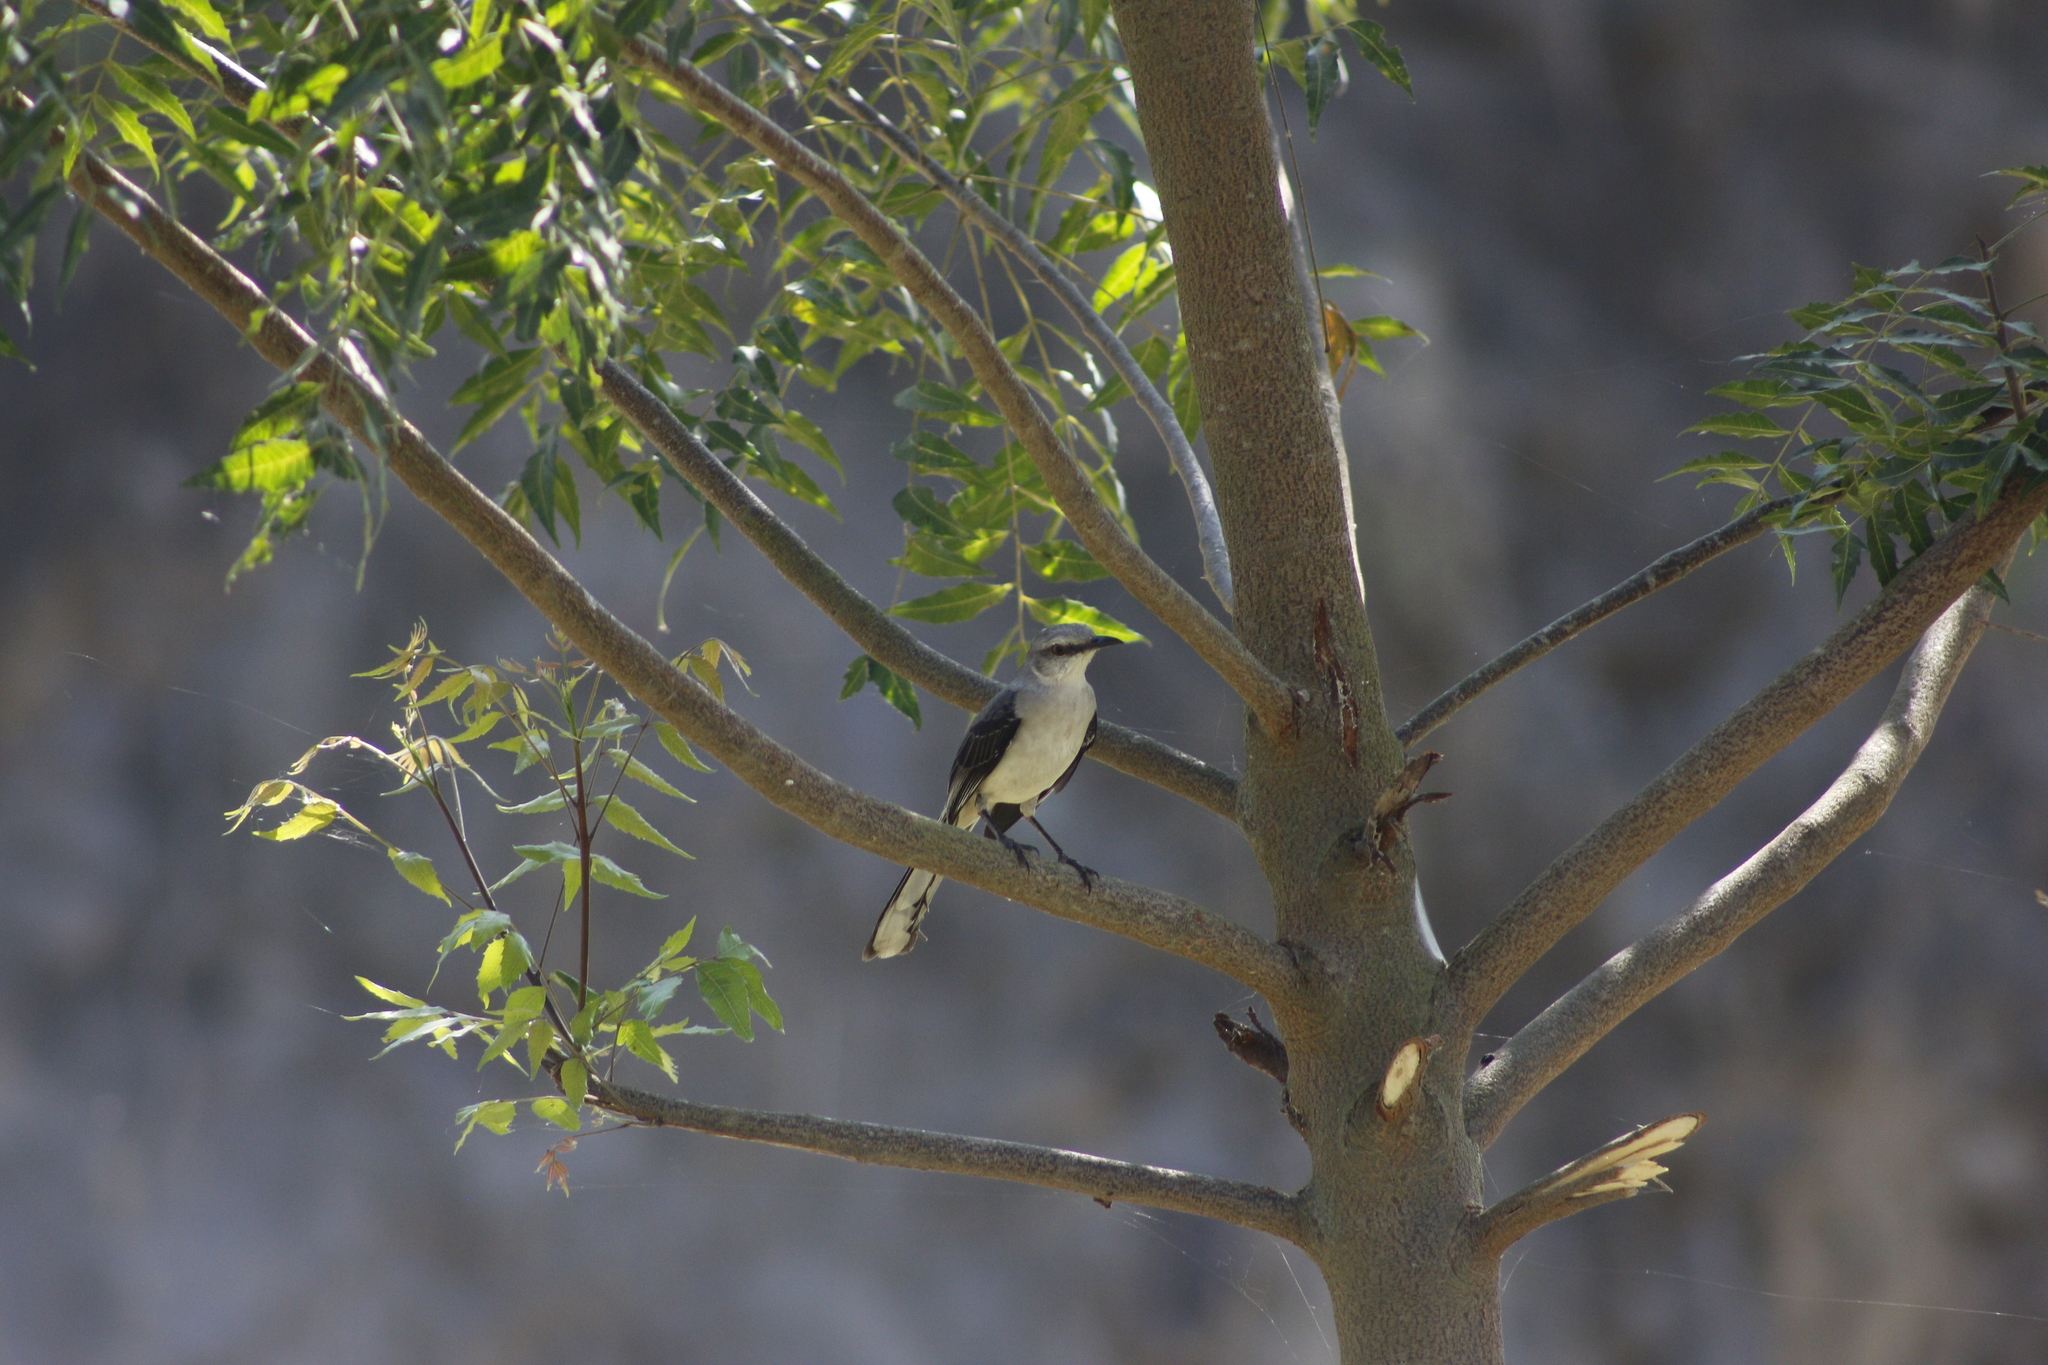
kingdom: Animalia
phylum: Chordata
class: Aves
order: Passeriformes
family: Mimidae
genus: Mimus
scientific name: Mimus gilvus
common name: Tropical mockingbird
